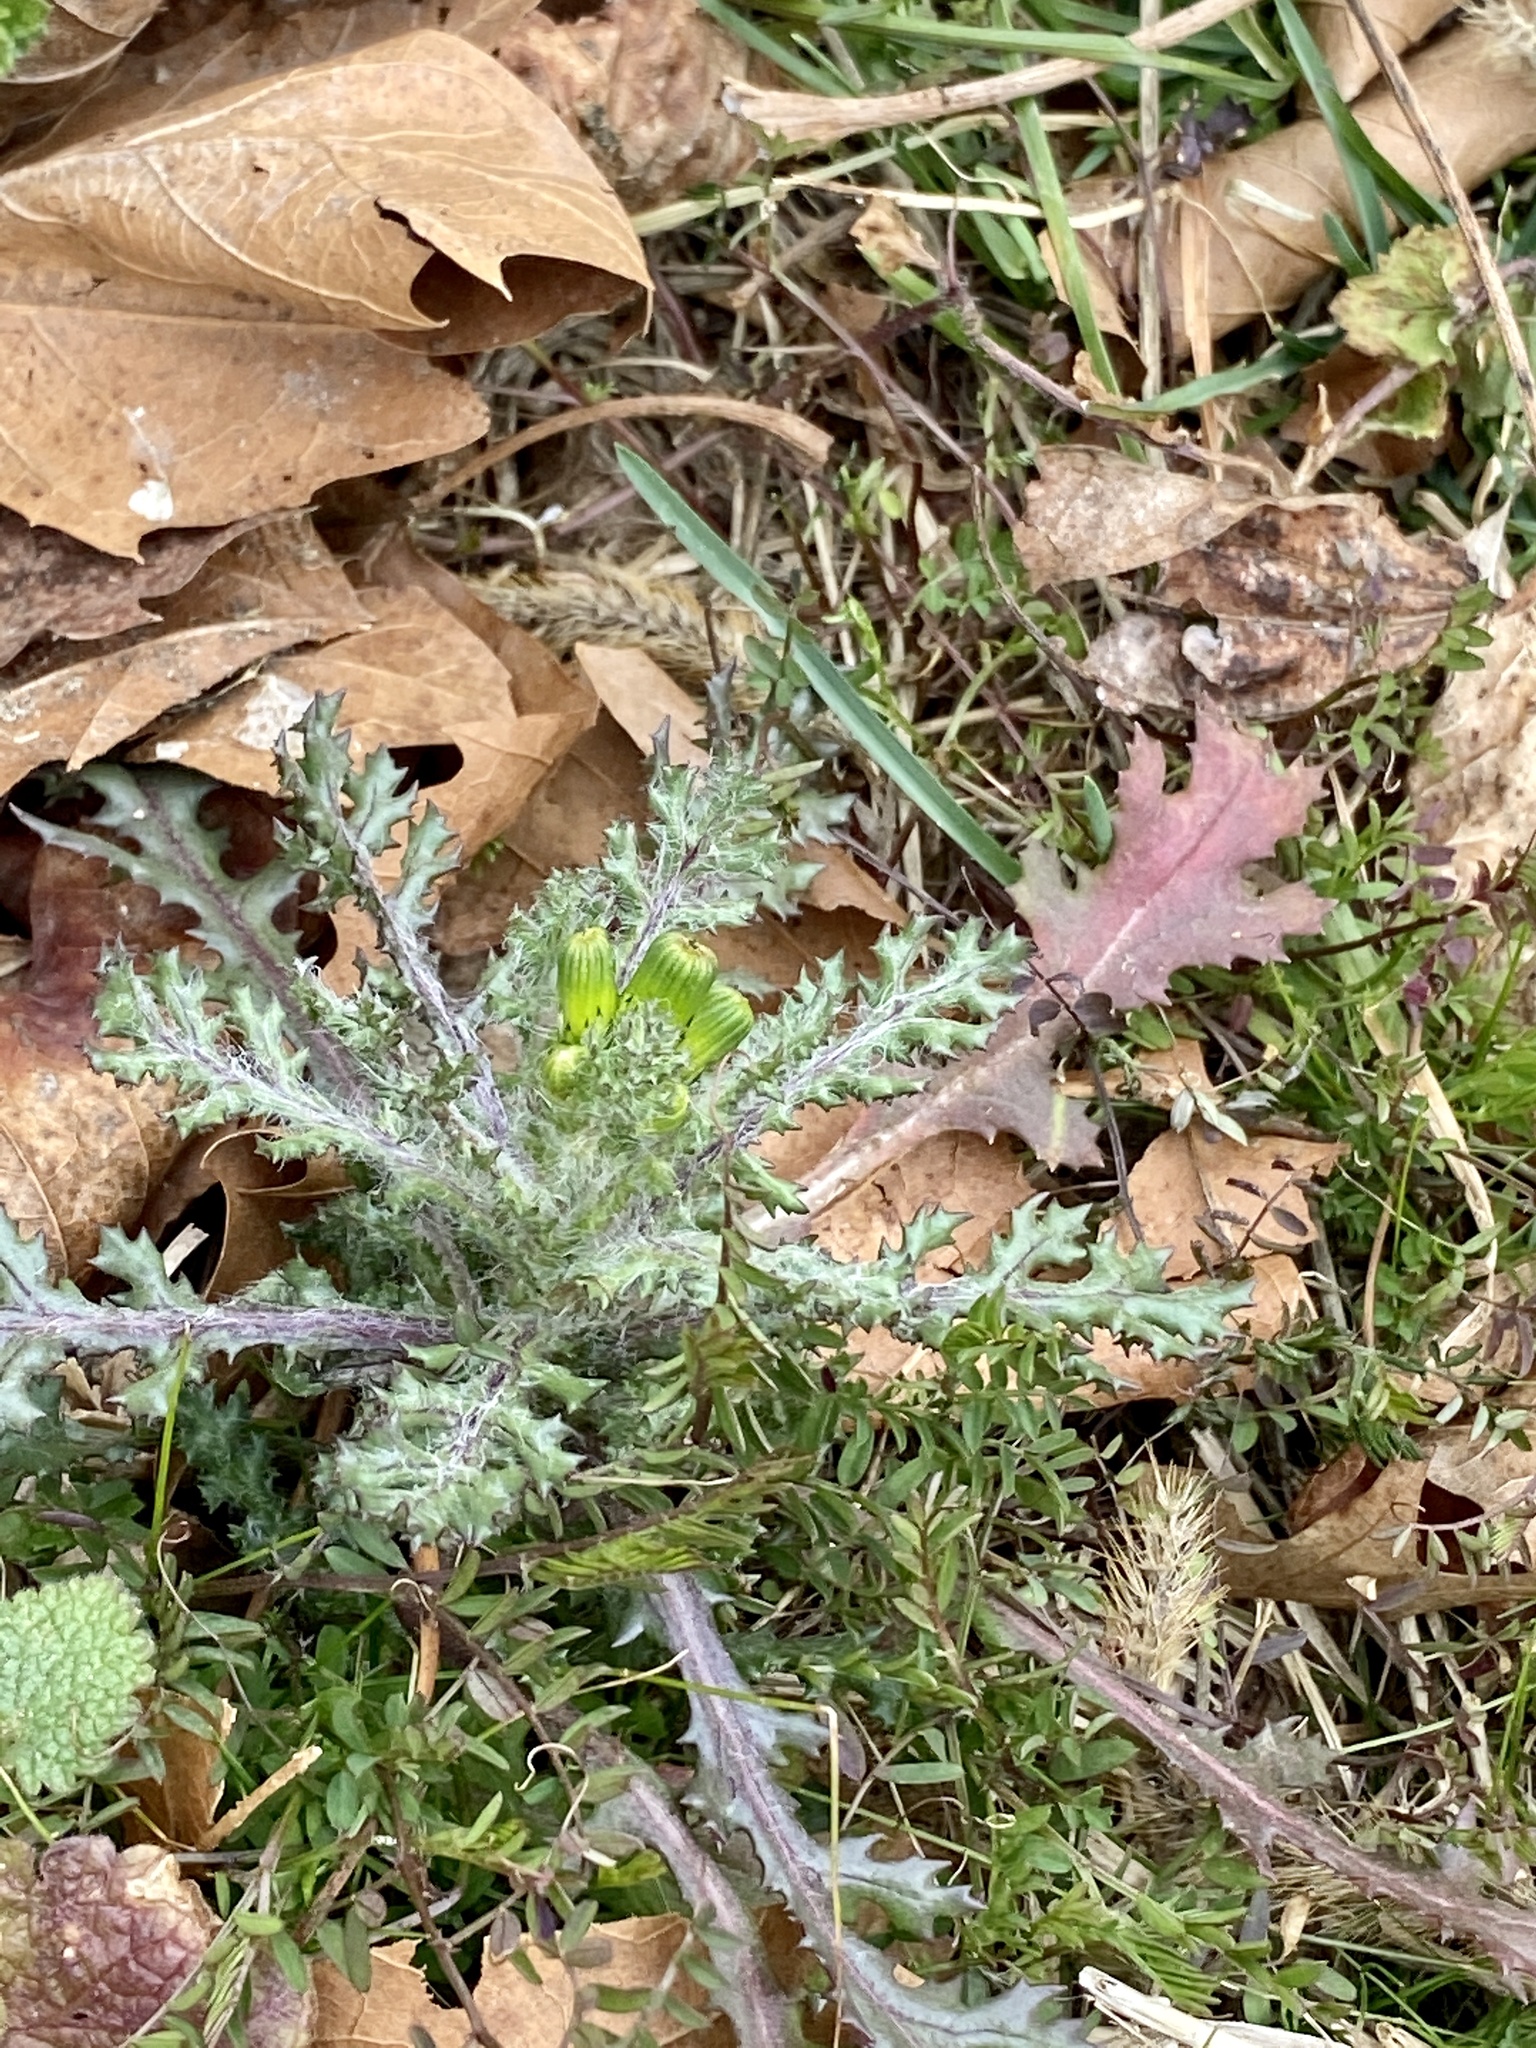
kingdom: Plantae
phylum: Tracheophyta
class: Magnoliopsida
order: Asterales
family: Asteraceae
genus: Senecio
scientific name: Senecio vulgaris
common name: Old-man-in-the-spring
